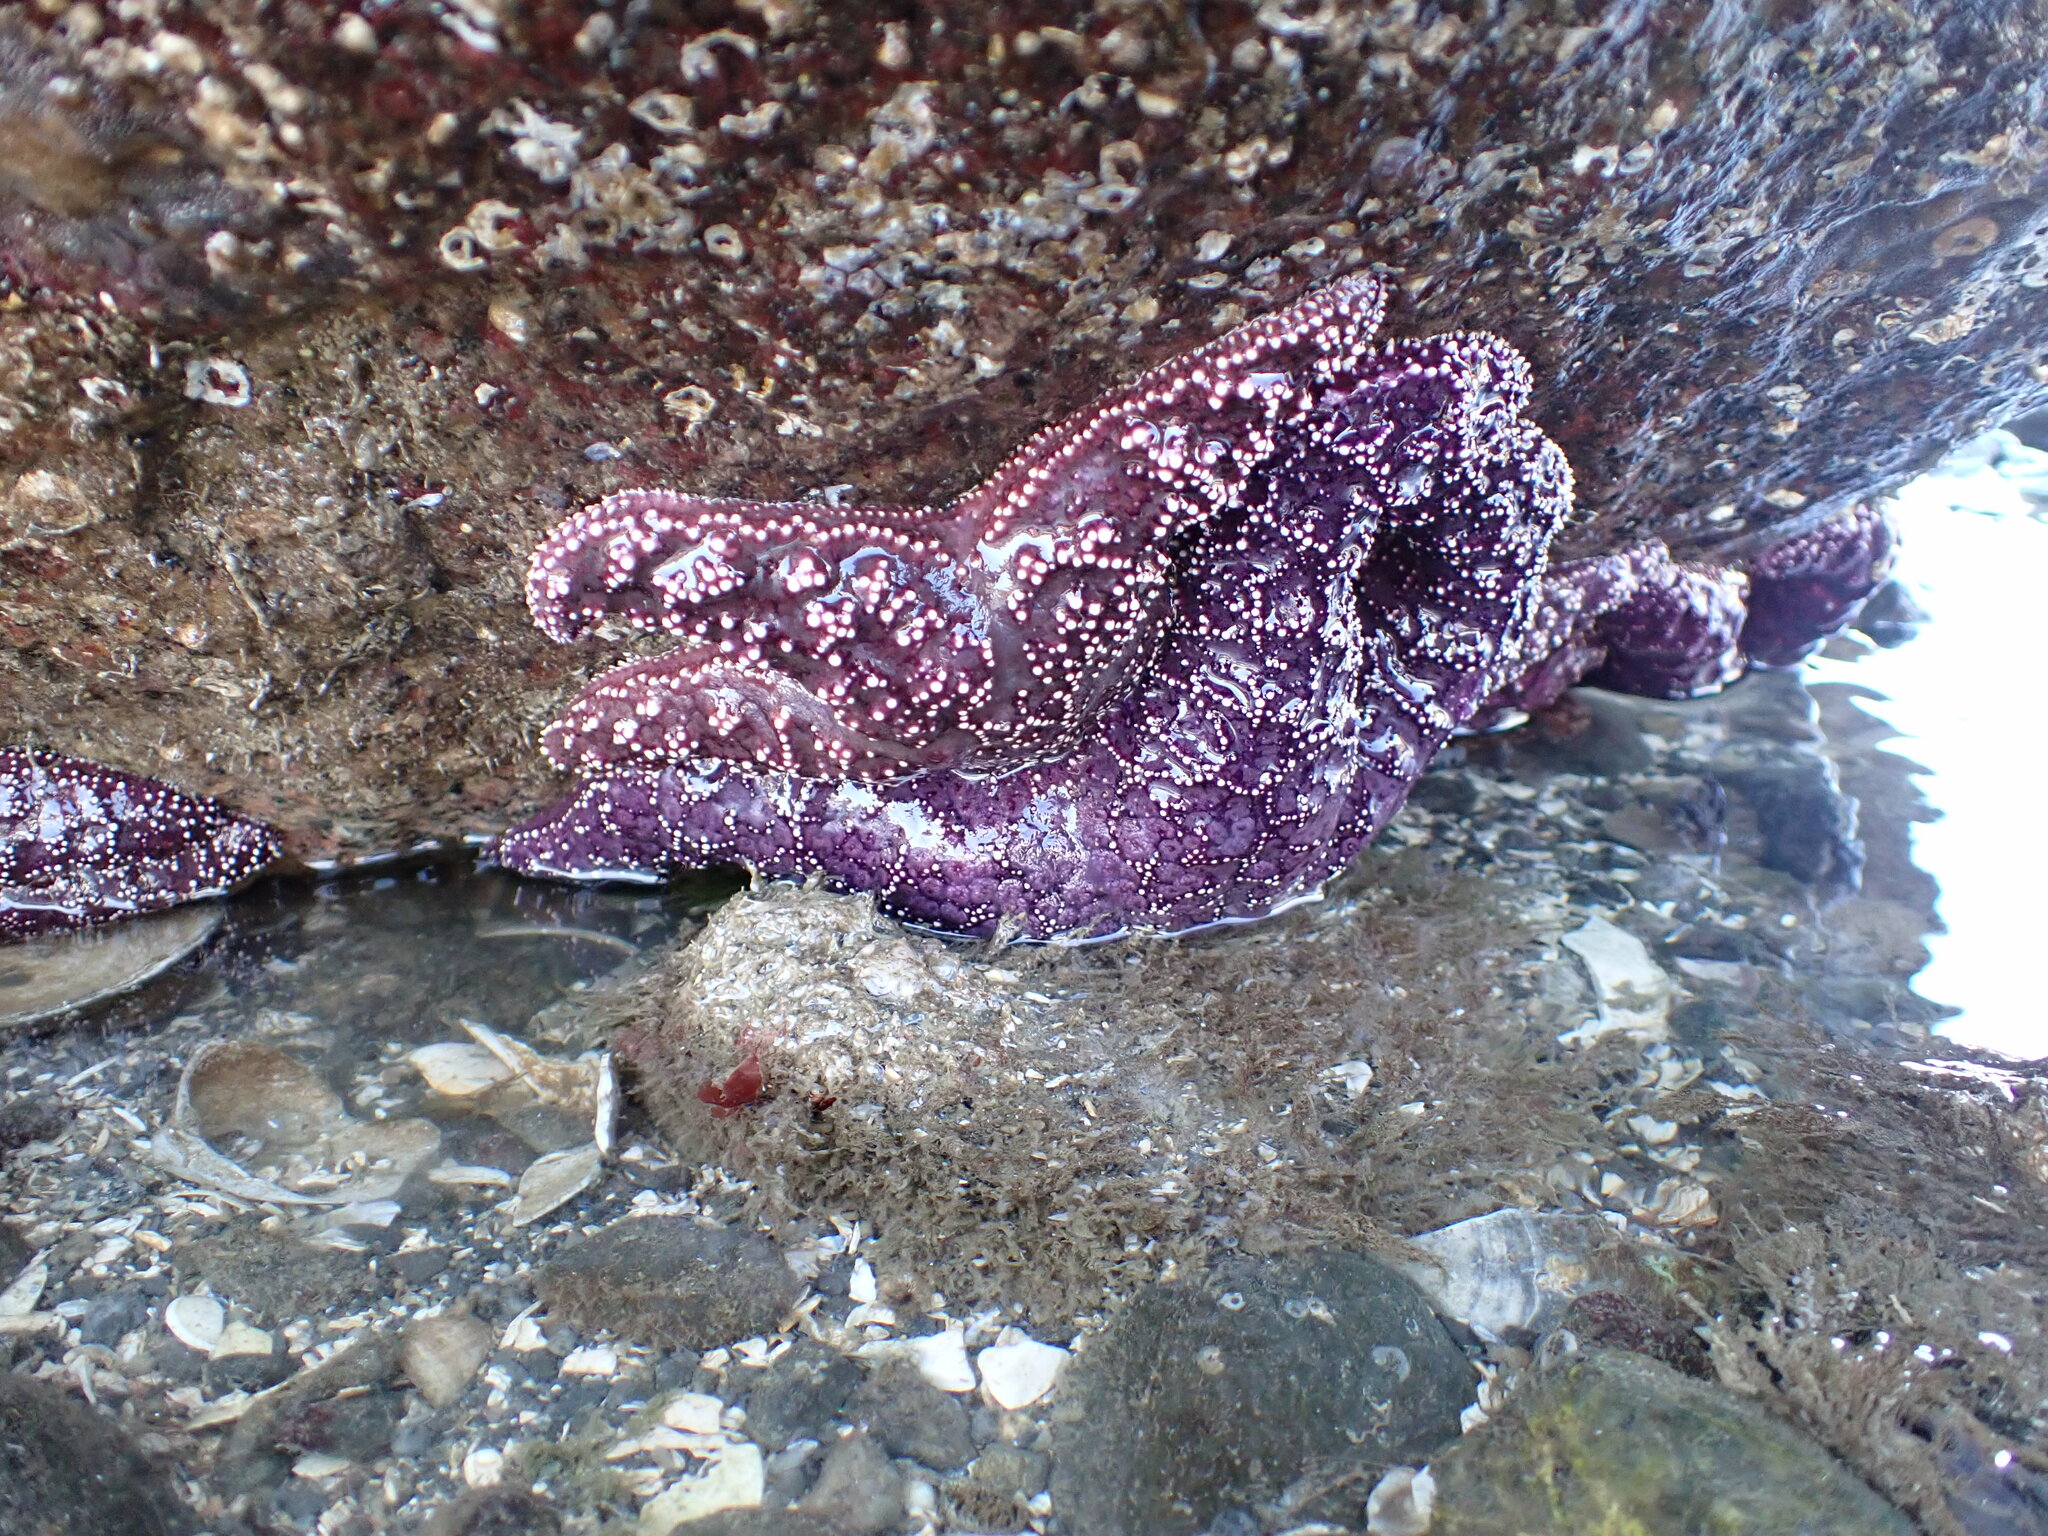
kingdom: Animalia
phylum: Echinodermata
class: Asteroidea
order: Forcipulatida
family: Asteriidae
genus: Pisaster
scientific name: Pisaster ochraceus
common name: Ochre stars
